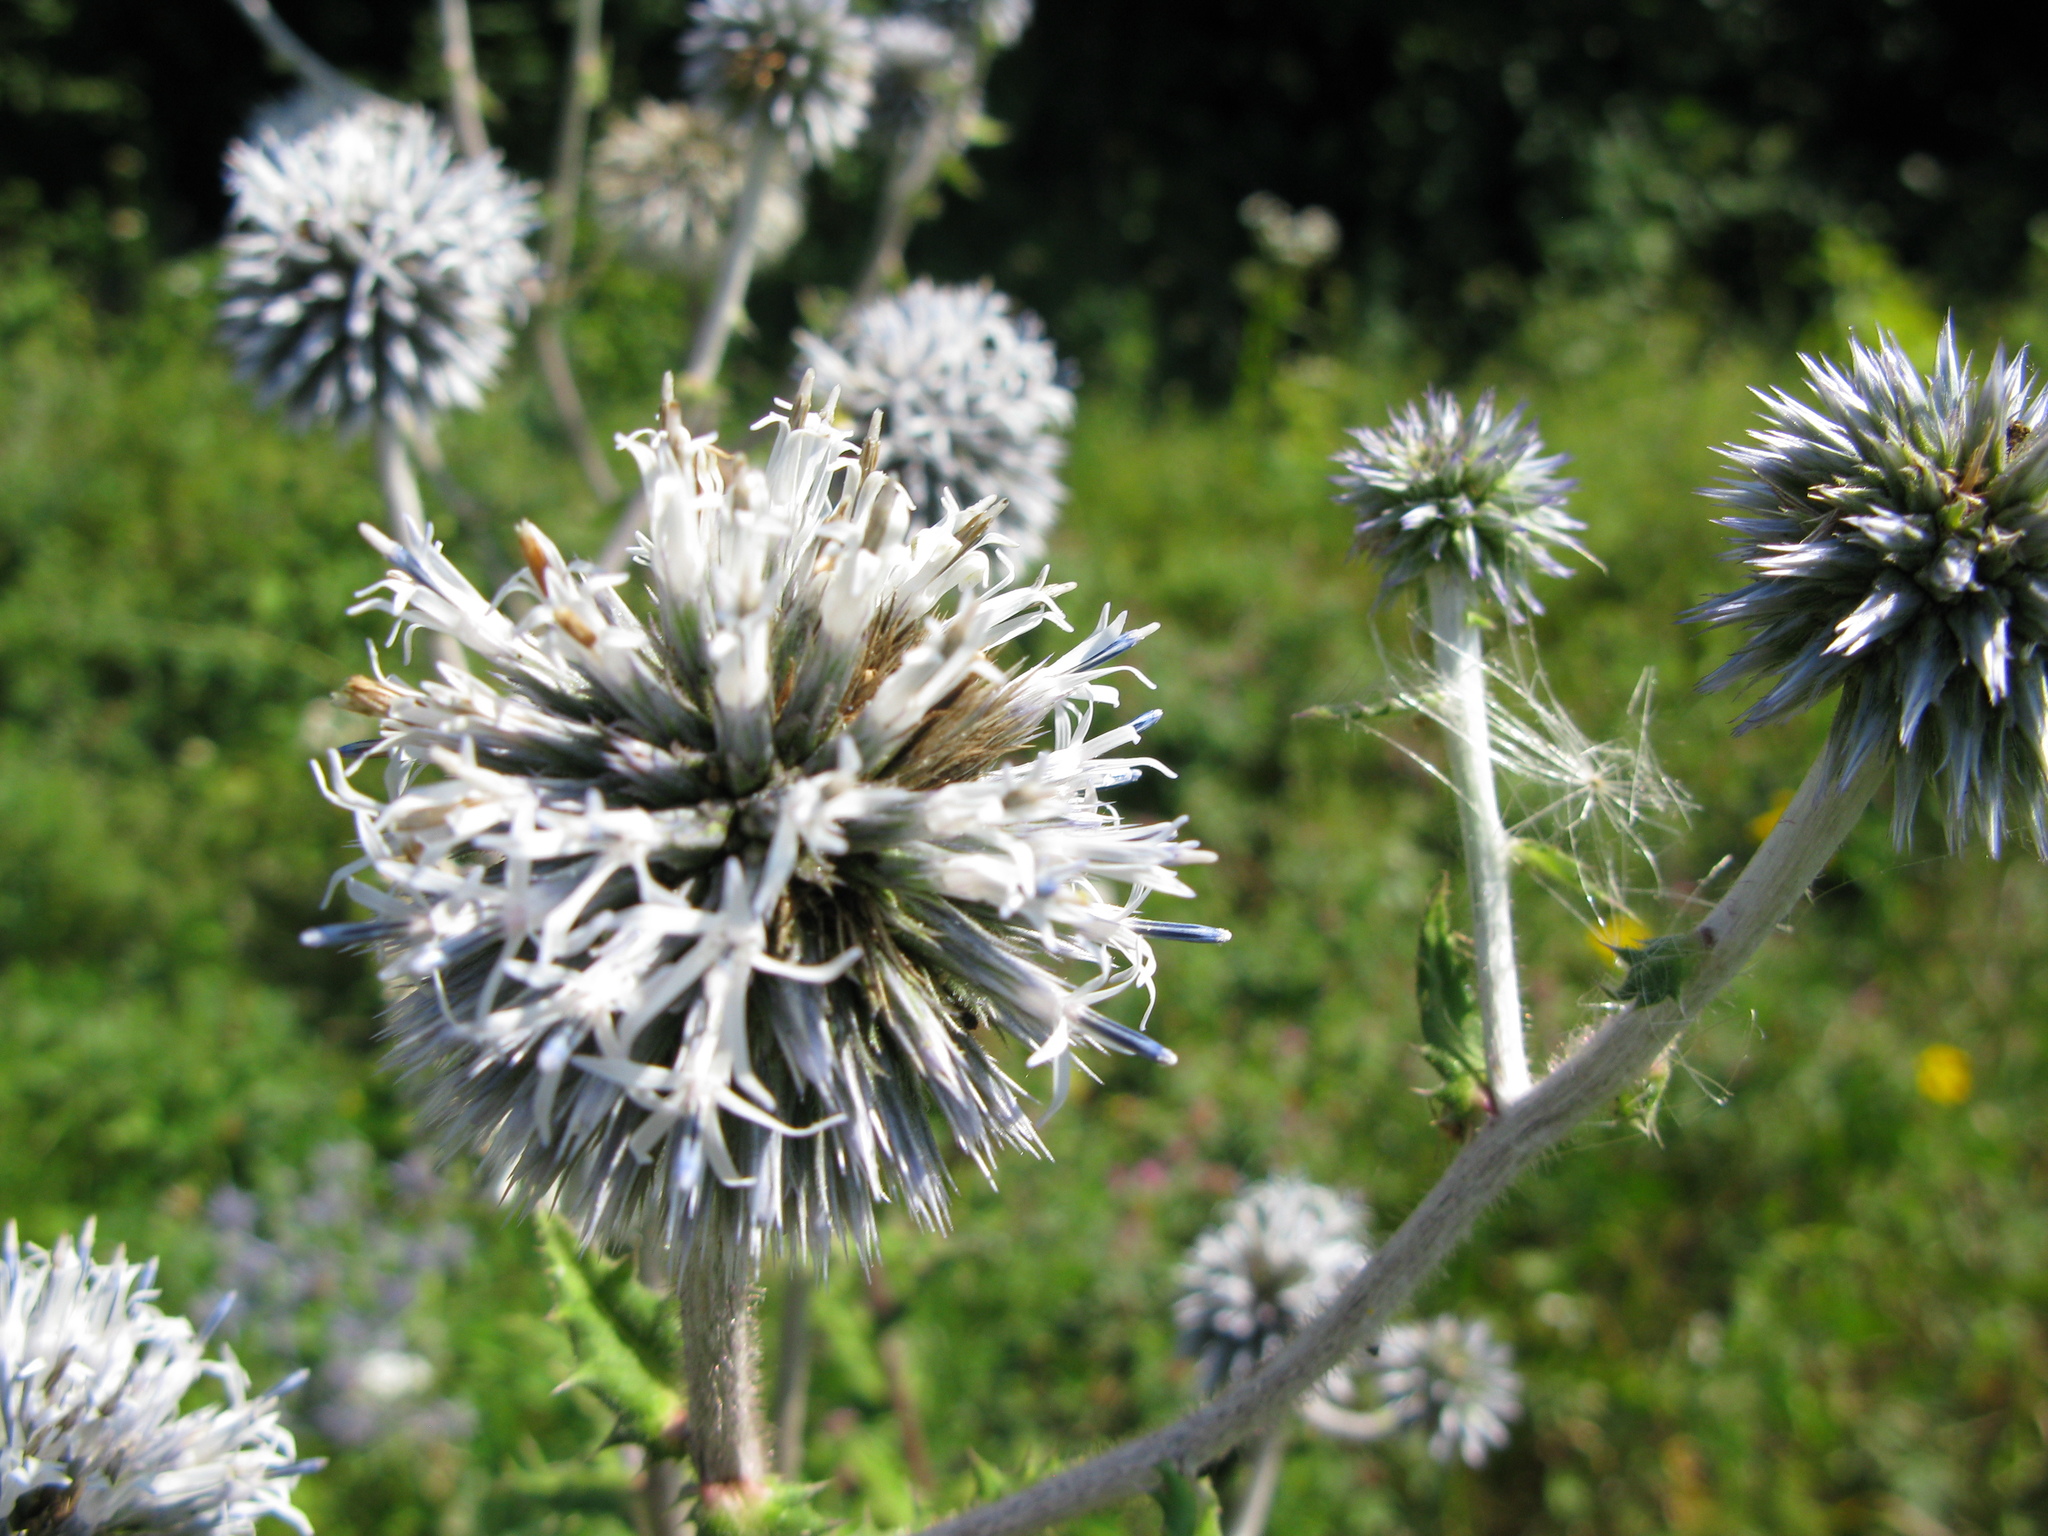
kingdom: Plantae
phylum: Tracheophyta
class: Magnoliopsida
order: Asterales
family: Asteraceae
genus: Echinops
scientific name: Echinops sphaerocephalus
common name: Glandular globe-thistle
